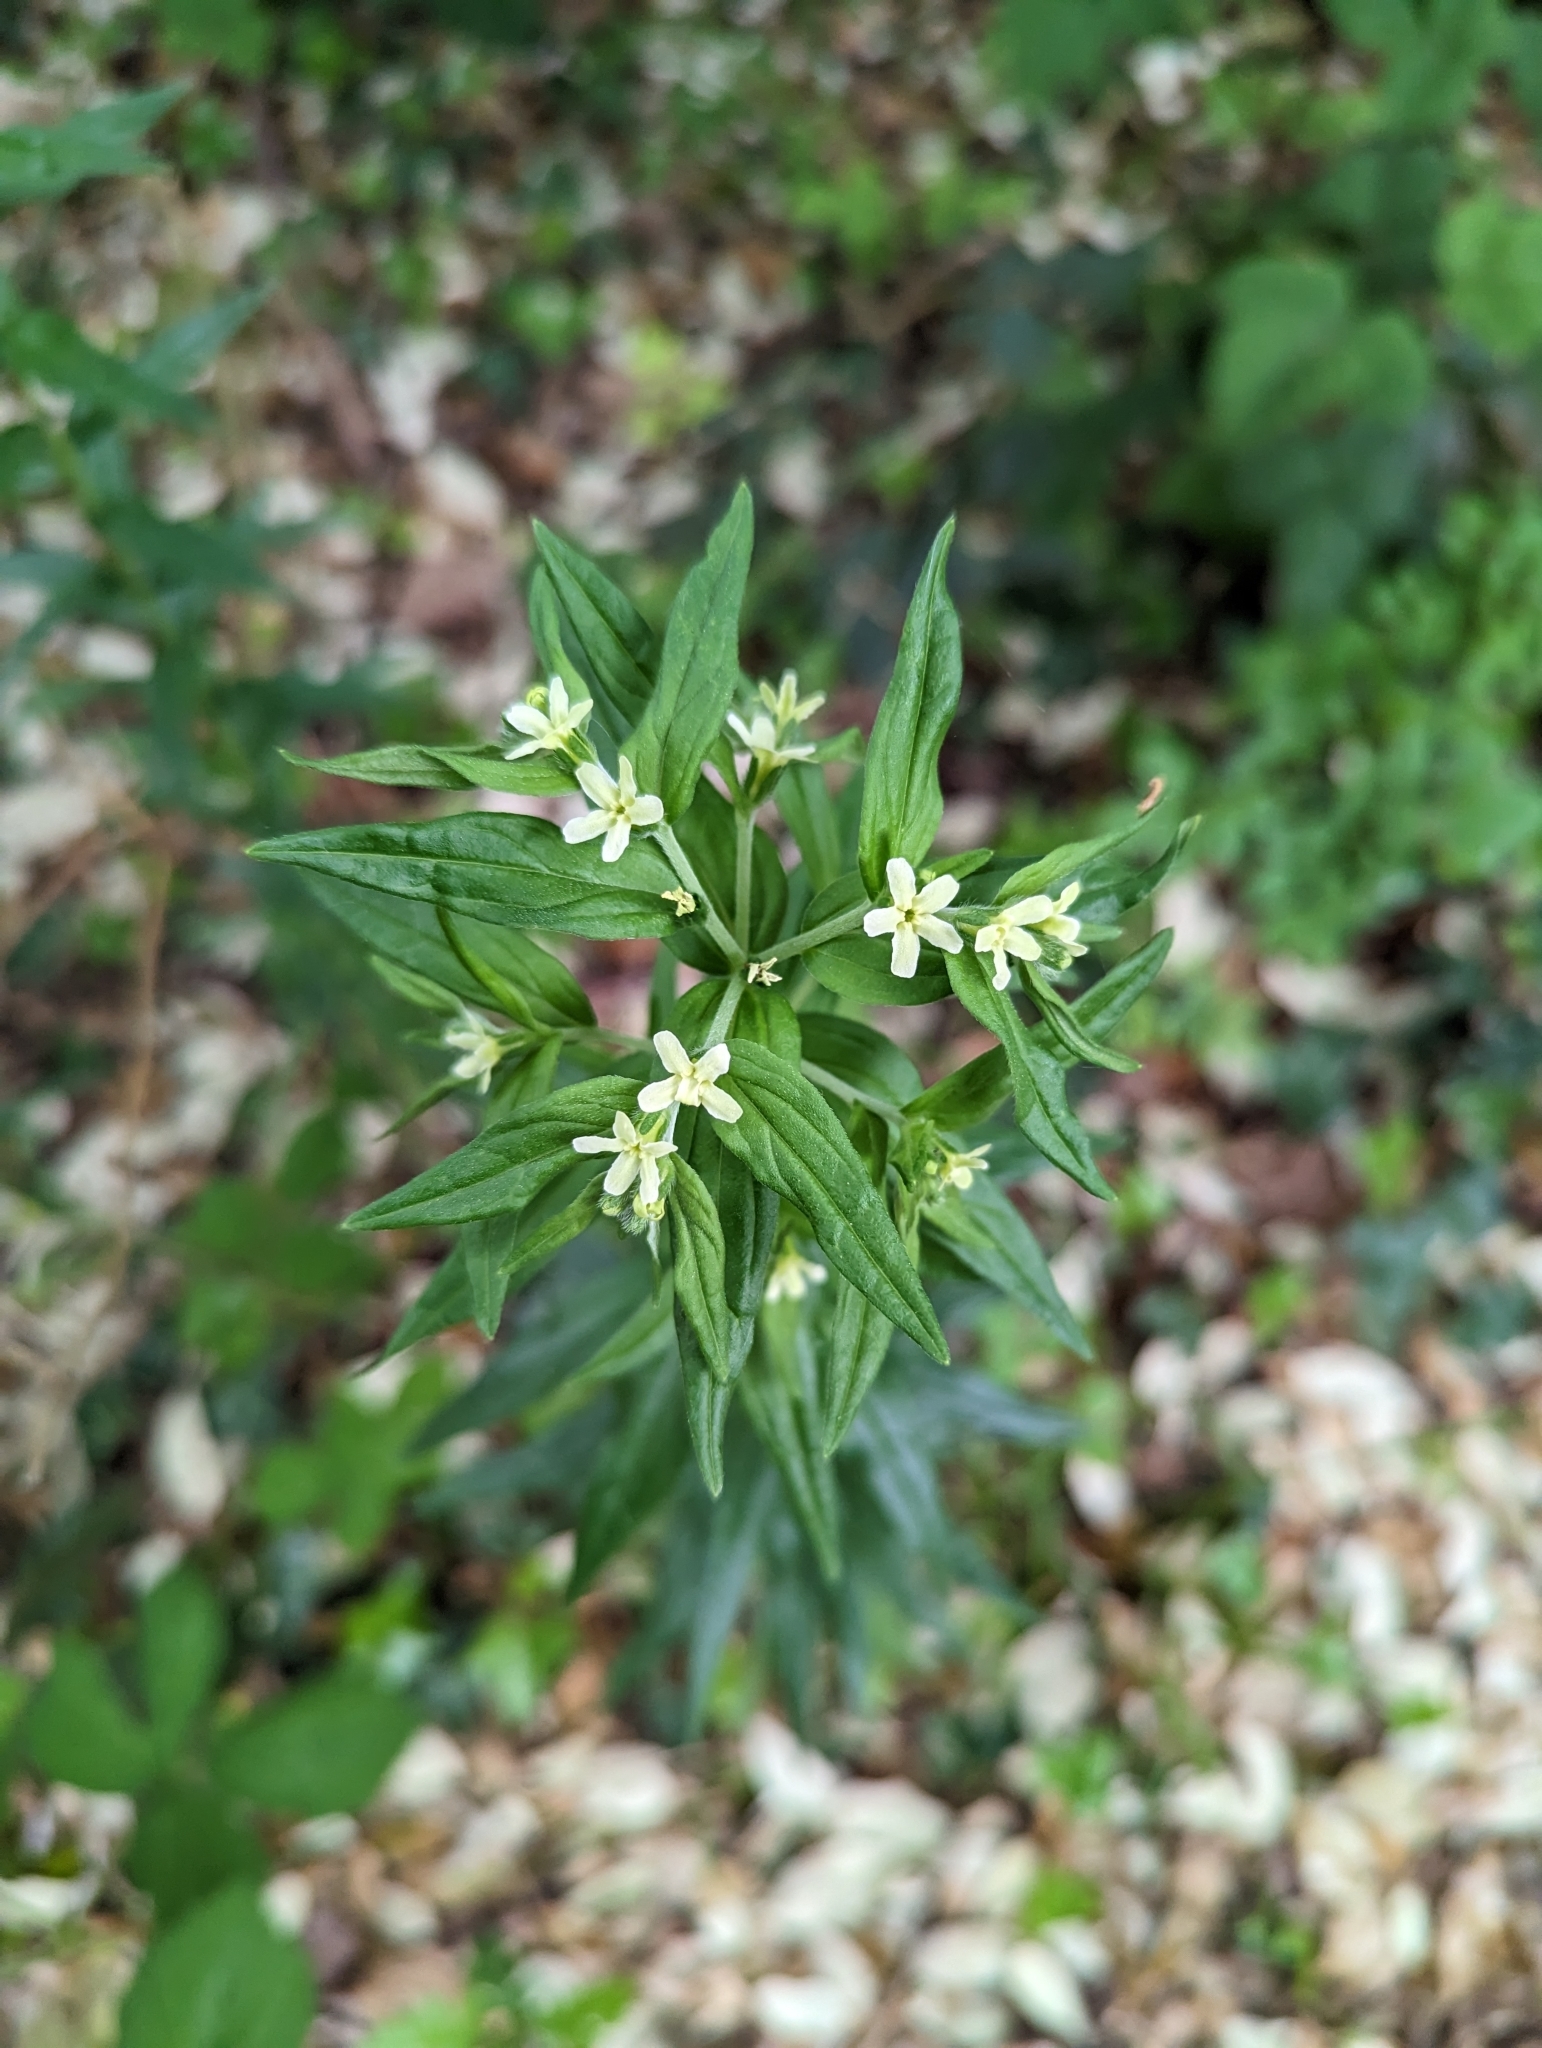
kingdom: Plantae
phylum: Tracheophyta
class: Magnoliopsida
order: Boraginales
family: Boraginaceae
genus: Lithospermum
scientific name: Lithospermum officinale
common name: Common gromwell
